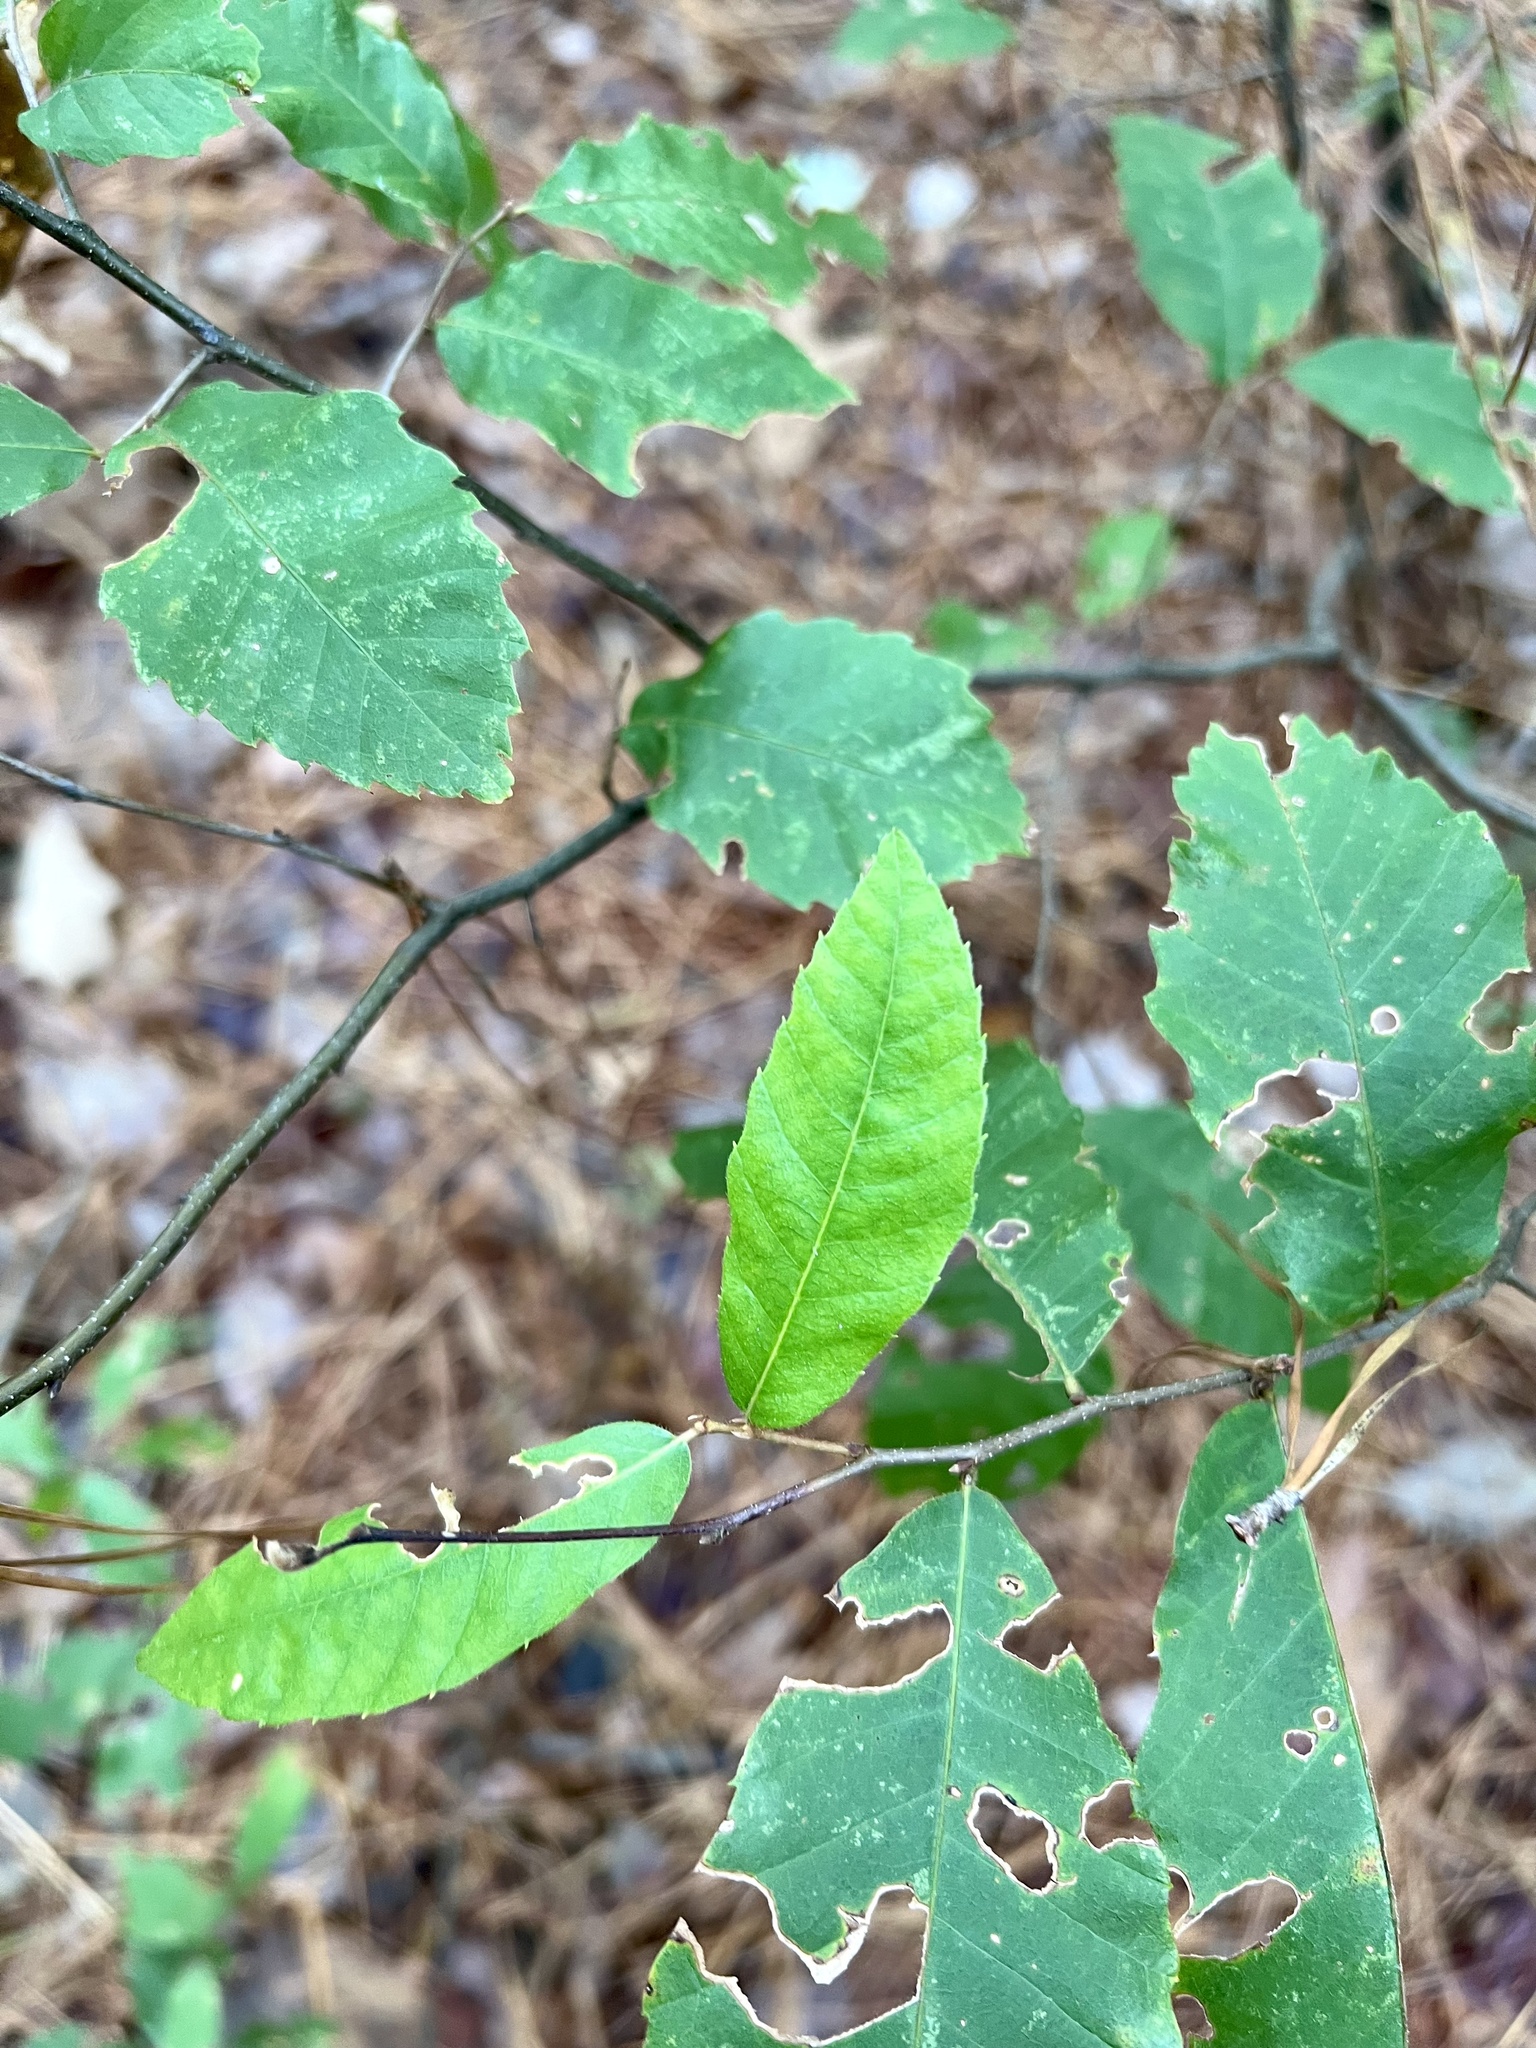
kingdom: Plantae
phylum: Tracheophyta
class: Magnoliopsida
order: Fagales
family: Fagaceae
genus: Castanea
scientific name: Castanea pumila
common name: Chinkapin
